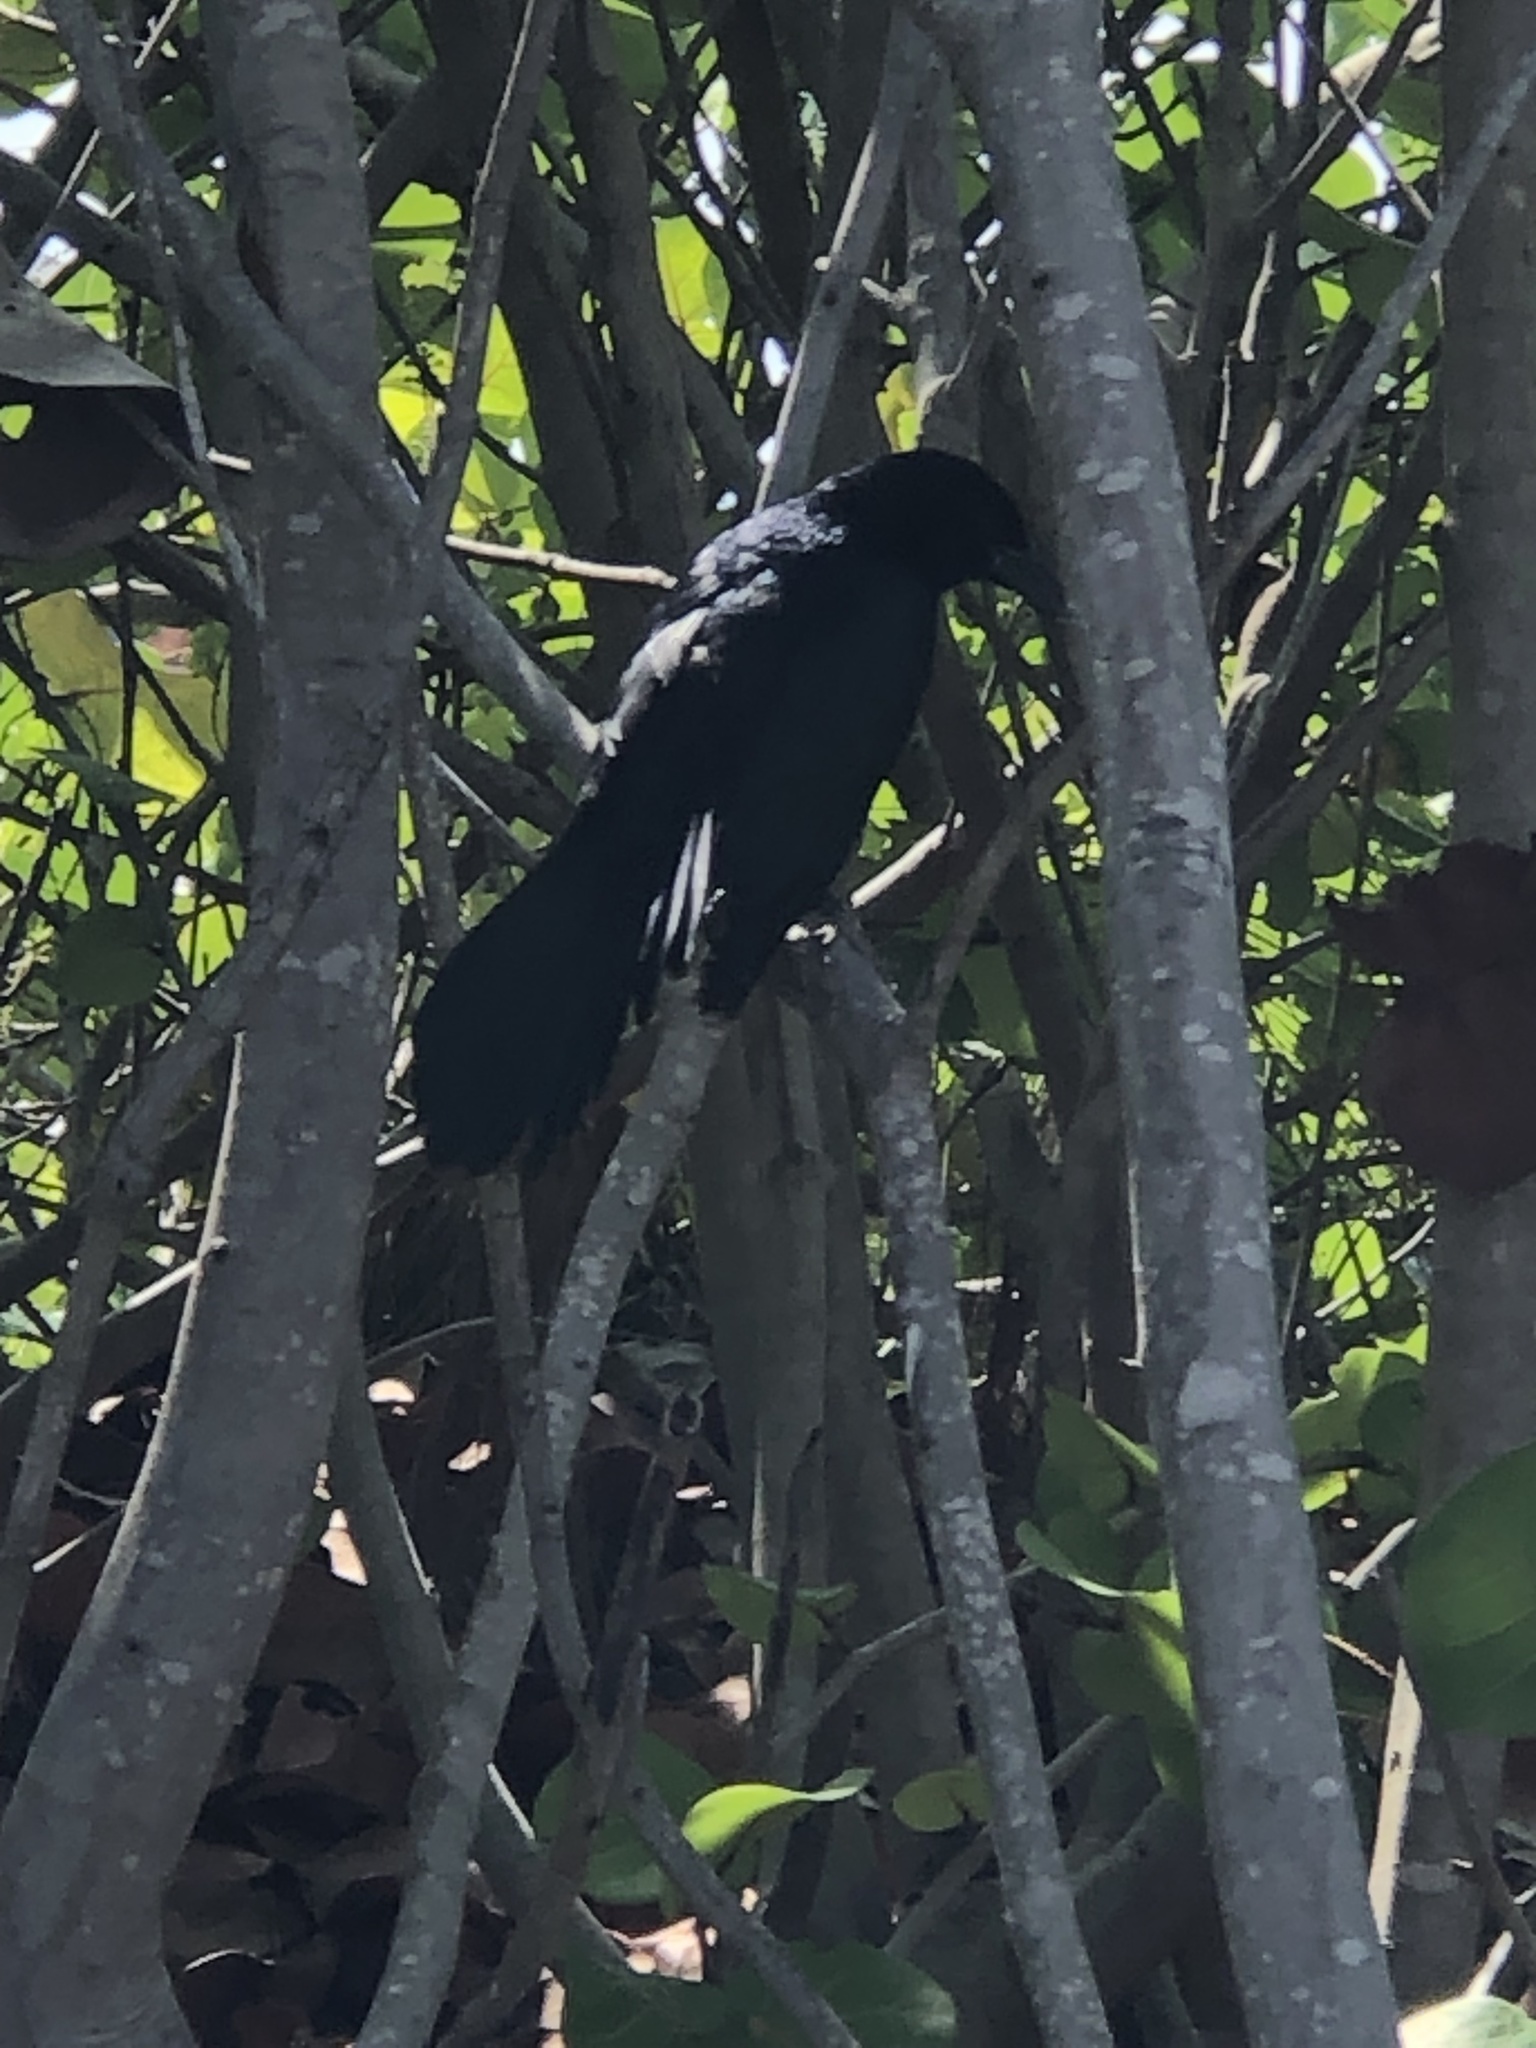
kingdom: Animalia
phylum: Chordata
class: Aves
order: Passeriformes
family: Icteridae
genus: Quiscalus
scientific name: Quiscalus major
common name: Boat-tailed grackle
